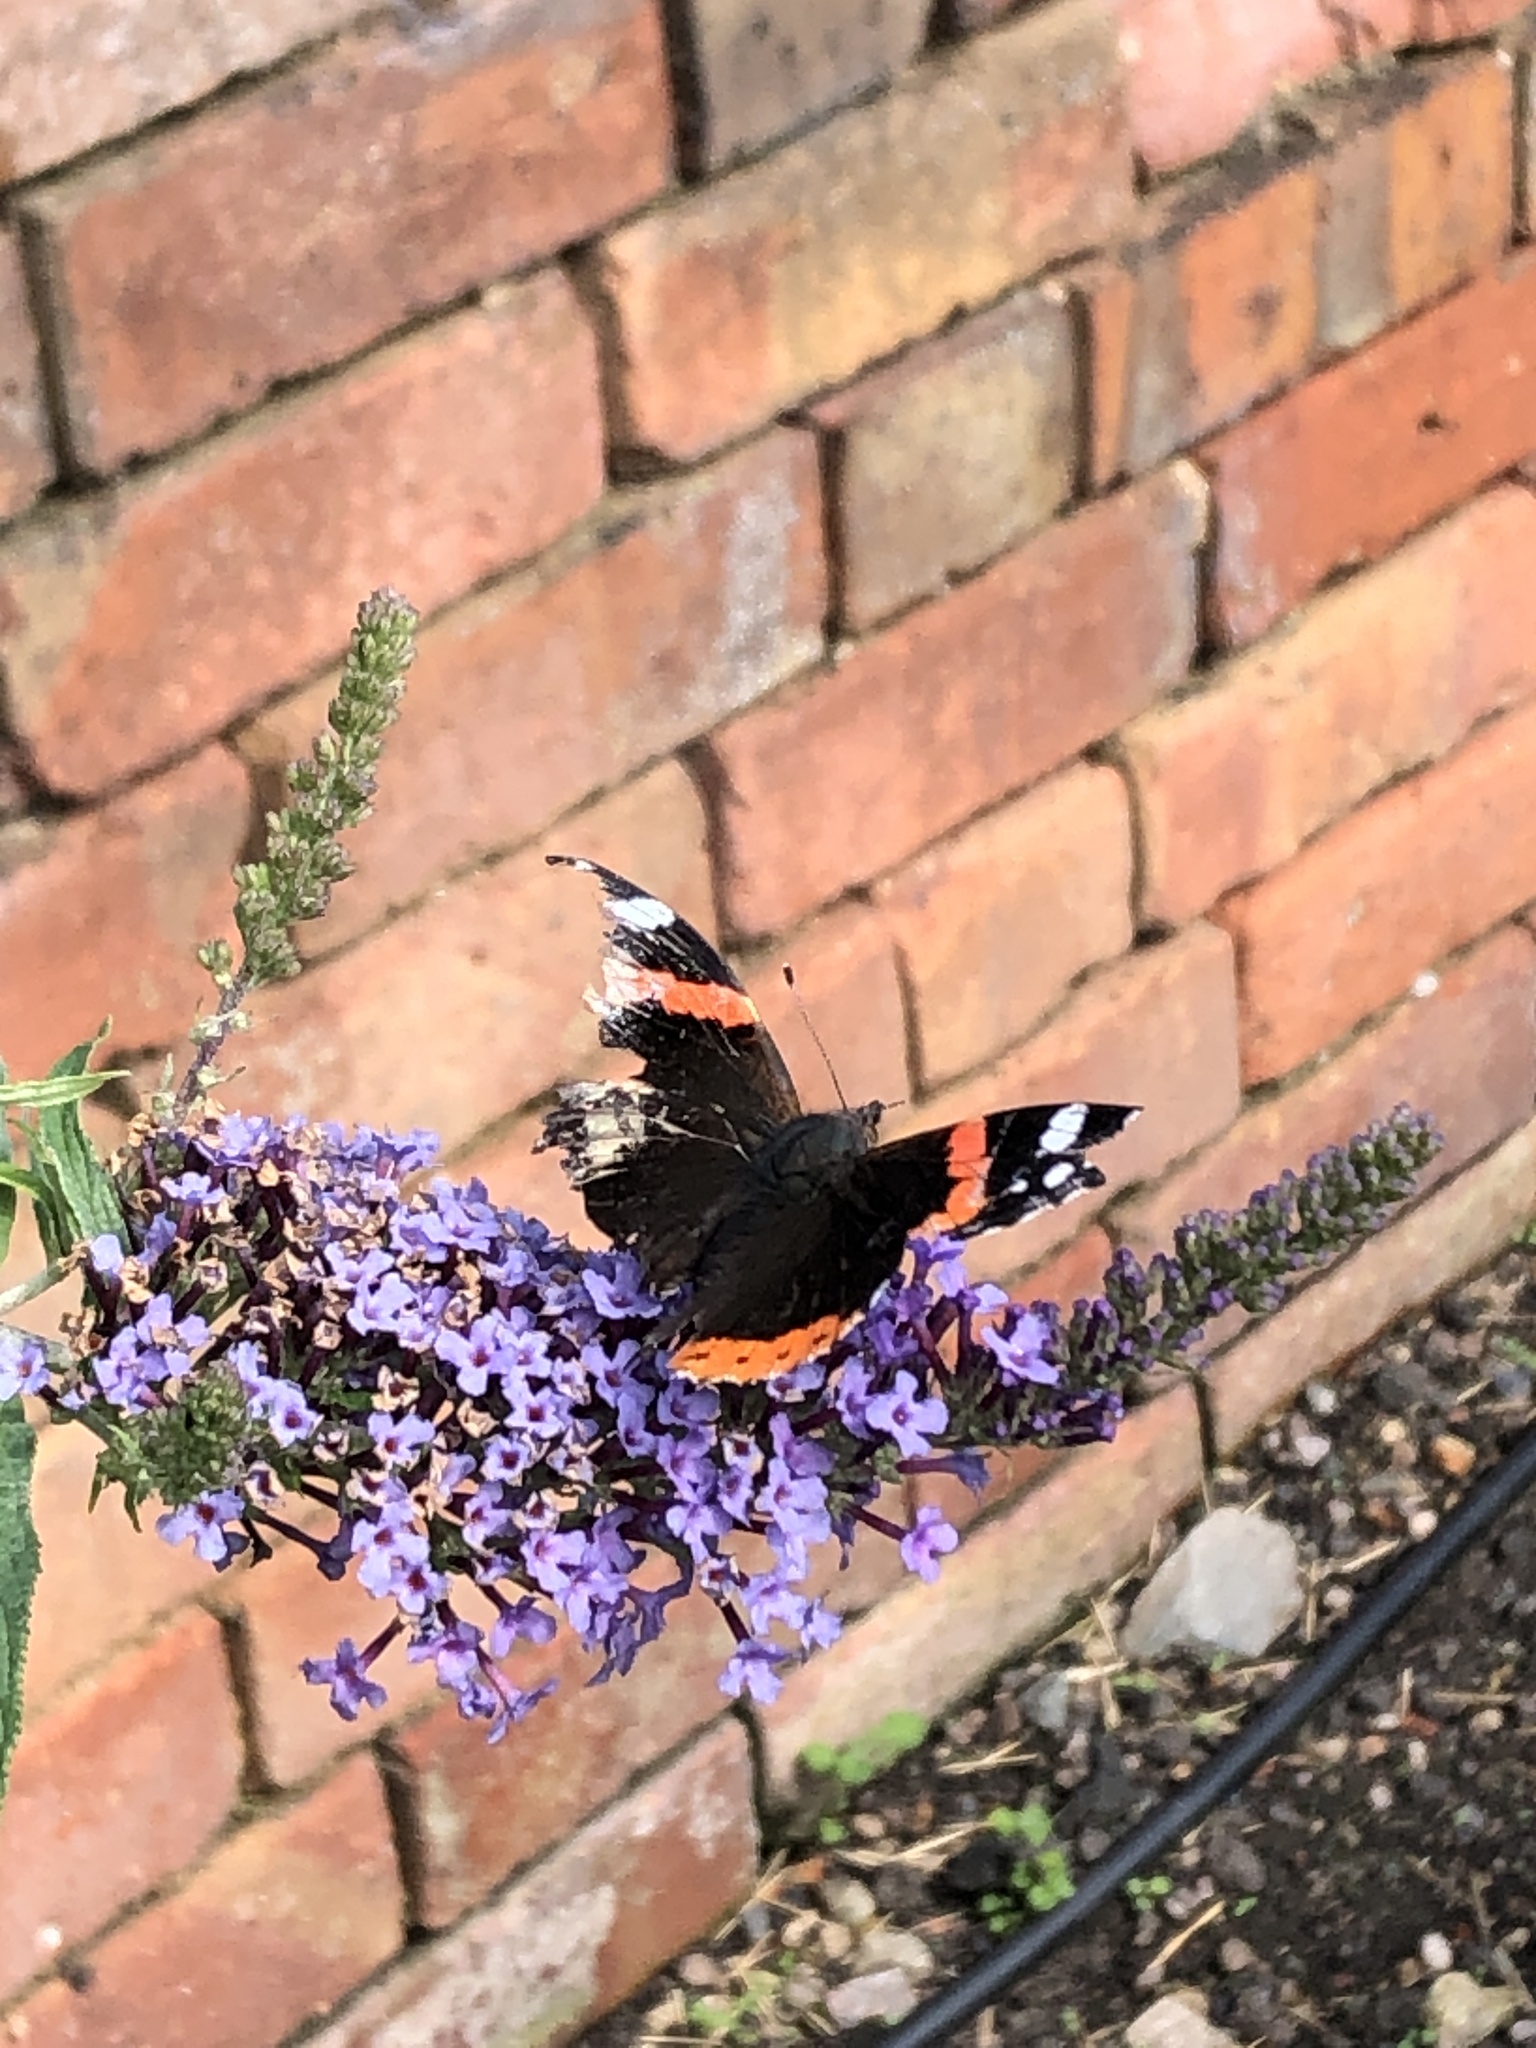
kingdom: Animalia
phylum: Arthropoda
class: Insecta
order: Lepidoptera
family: Nymphalidae
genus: Vanessa
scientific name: Vanessa atalanta
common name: Red admiral
